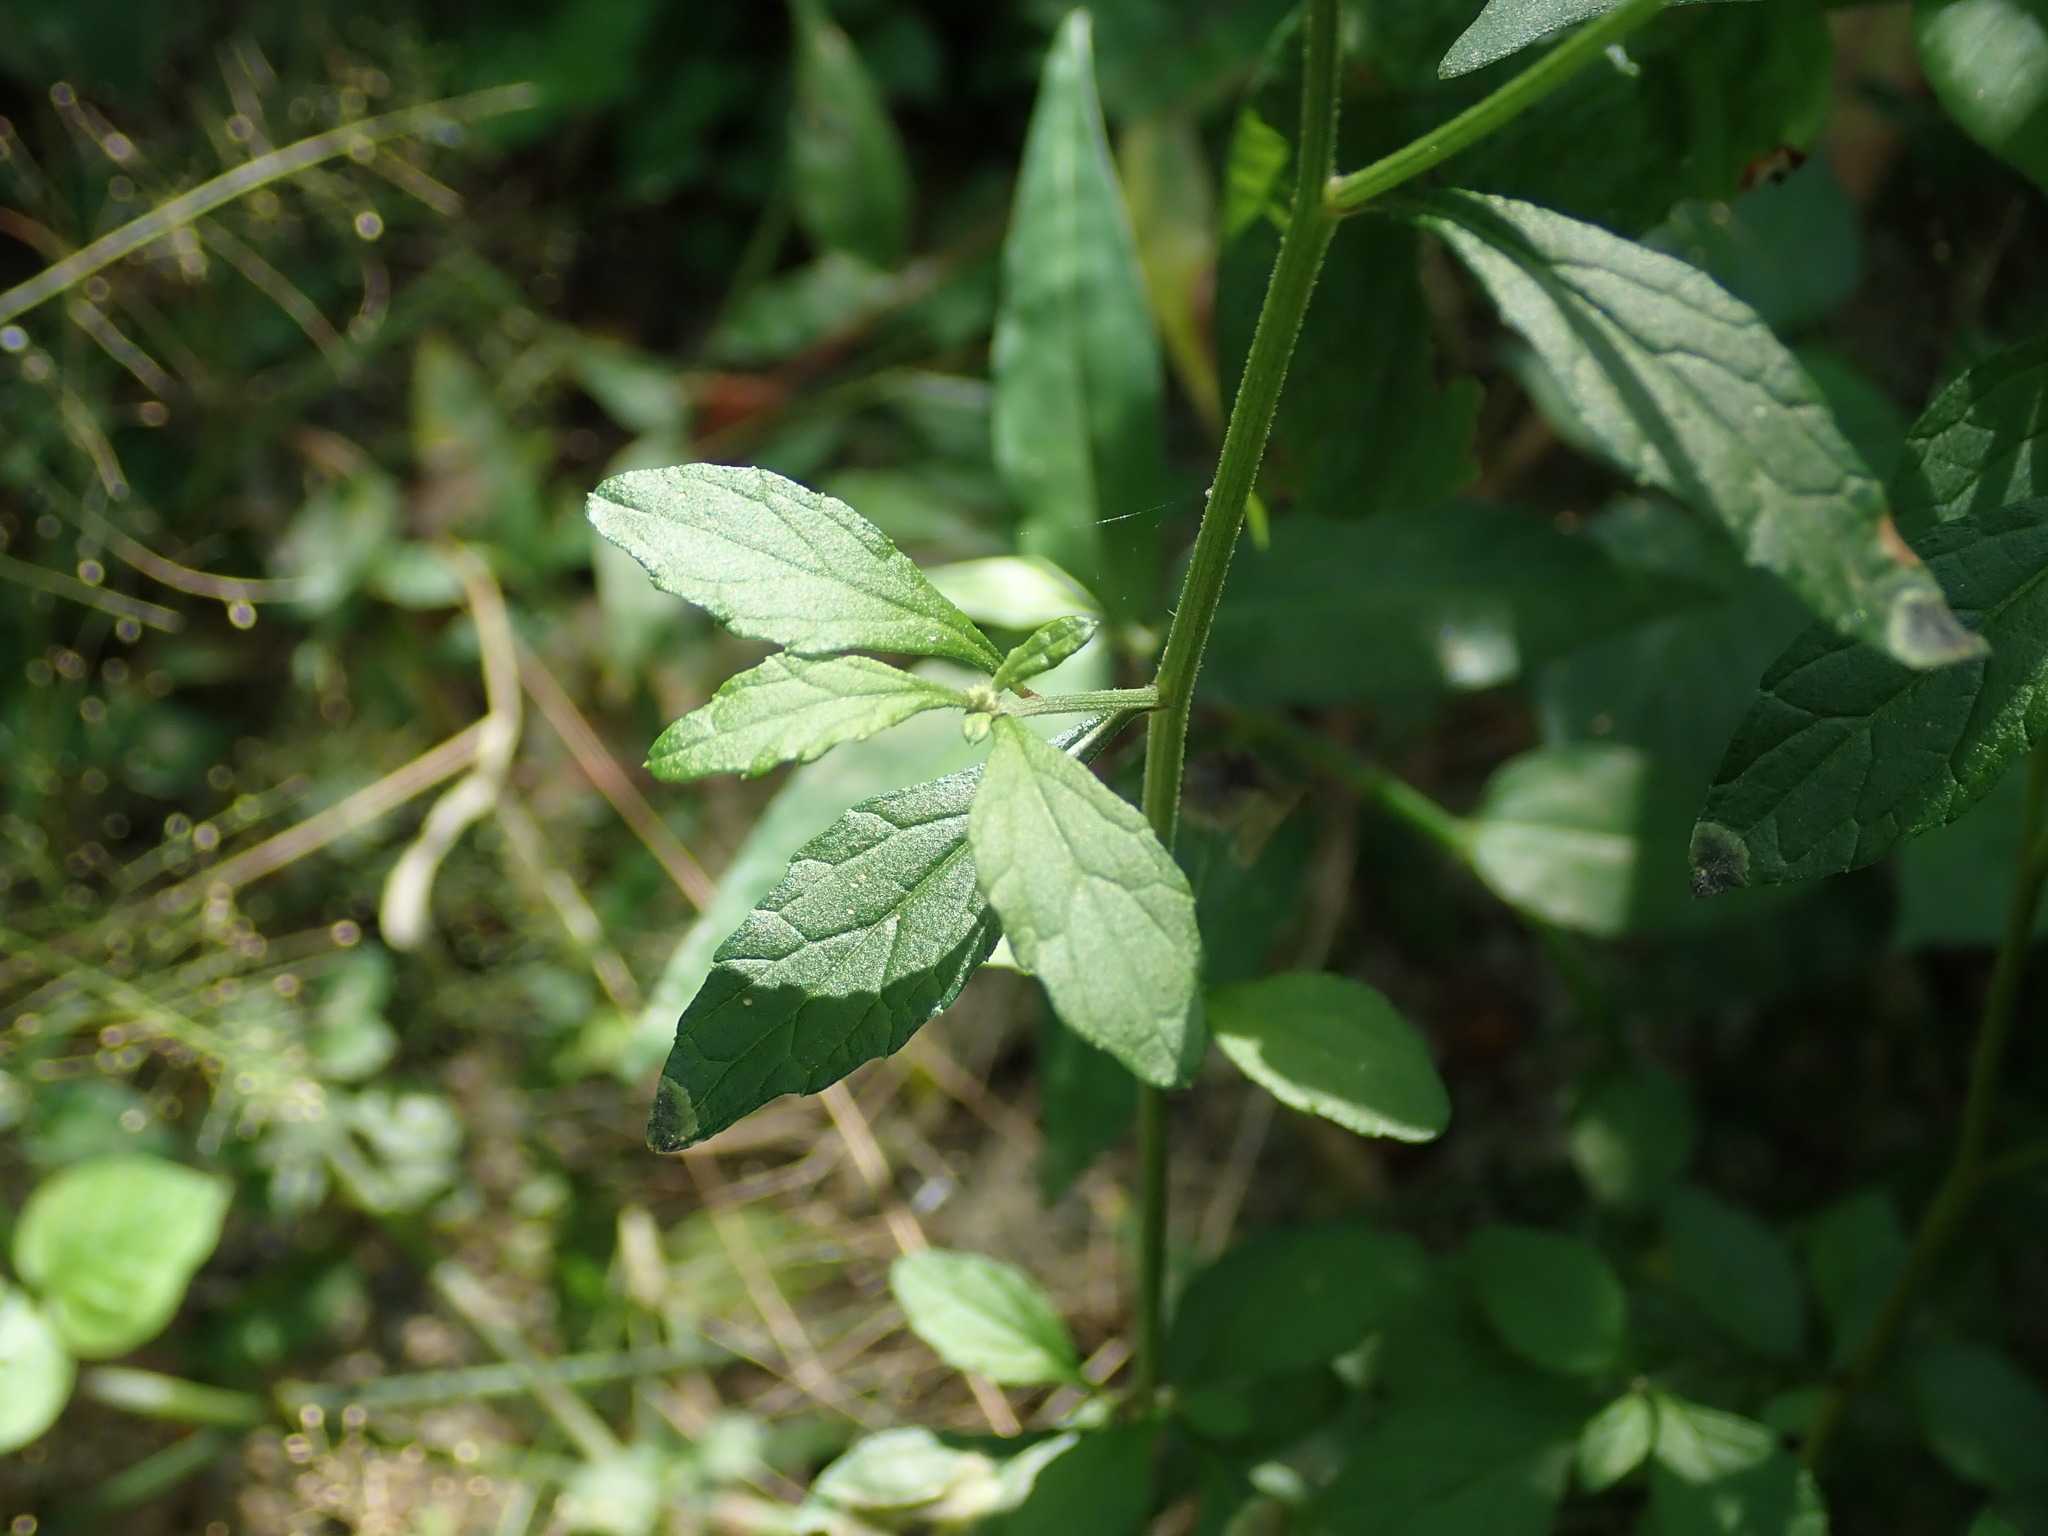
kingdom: Plantae
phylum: Tracheophyta
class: Magnoliopsida
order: Asterales
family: Asteraceae
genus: Cyanthillium
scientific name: Cyanthillium cinereum
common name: Little ironweed
